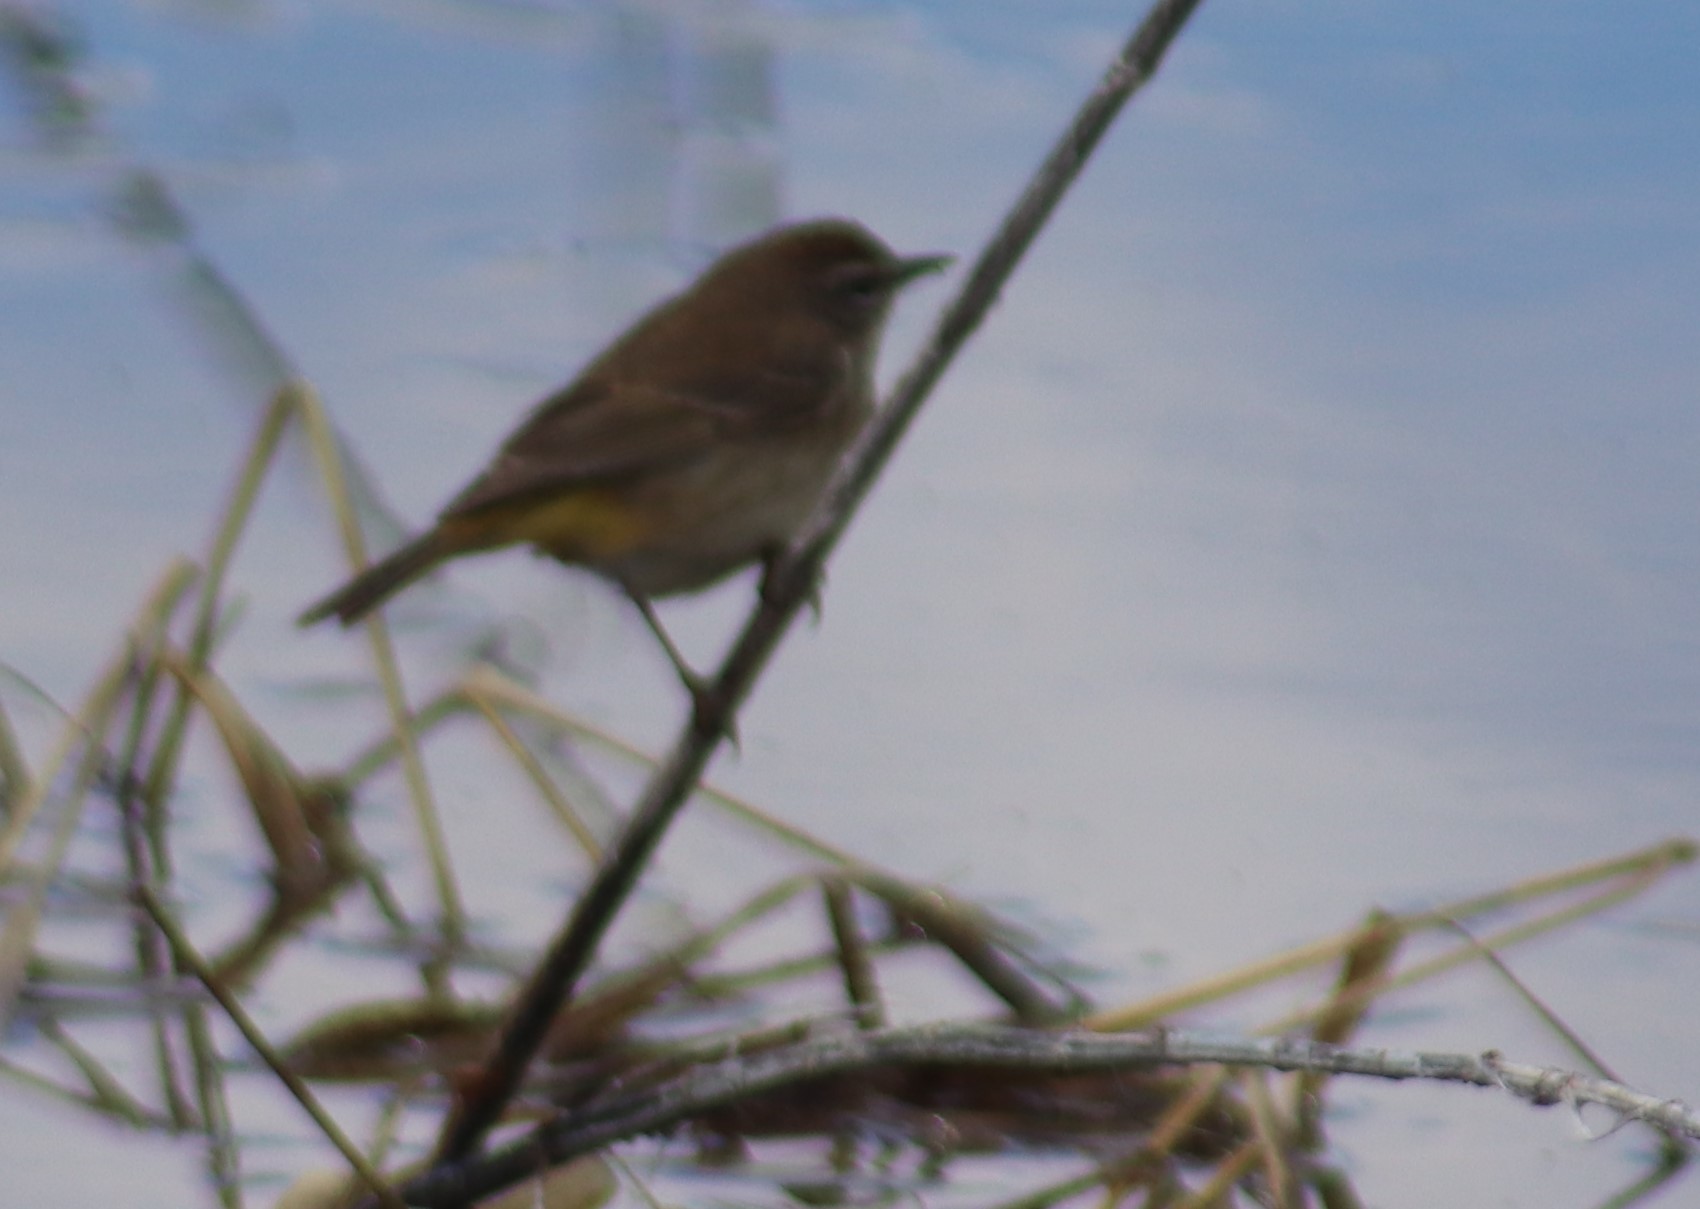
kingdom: Animalia
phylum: Chordata
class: Aves
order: Passeriformes
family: Parulidae
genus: Setophaga
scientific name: Setophaga palmarum
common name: Palm warbler
